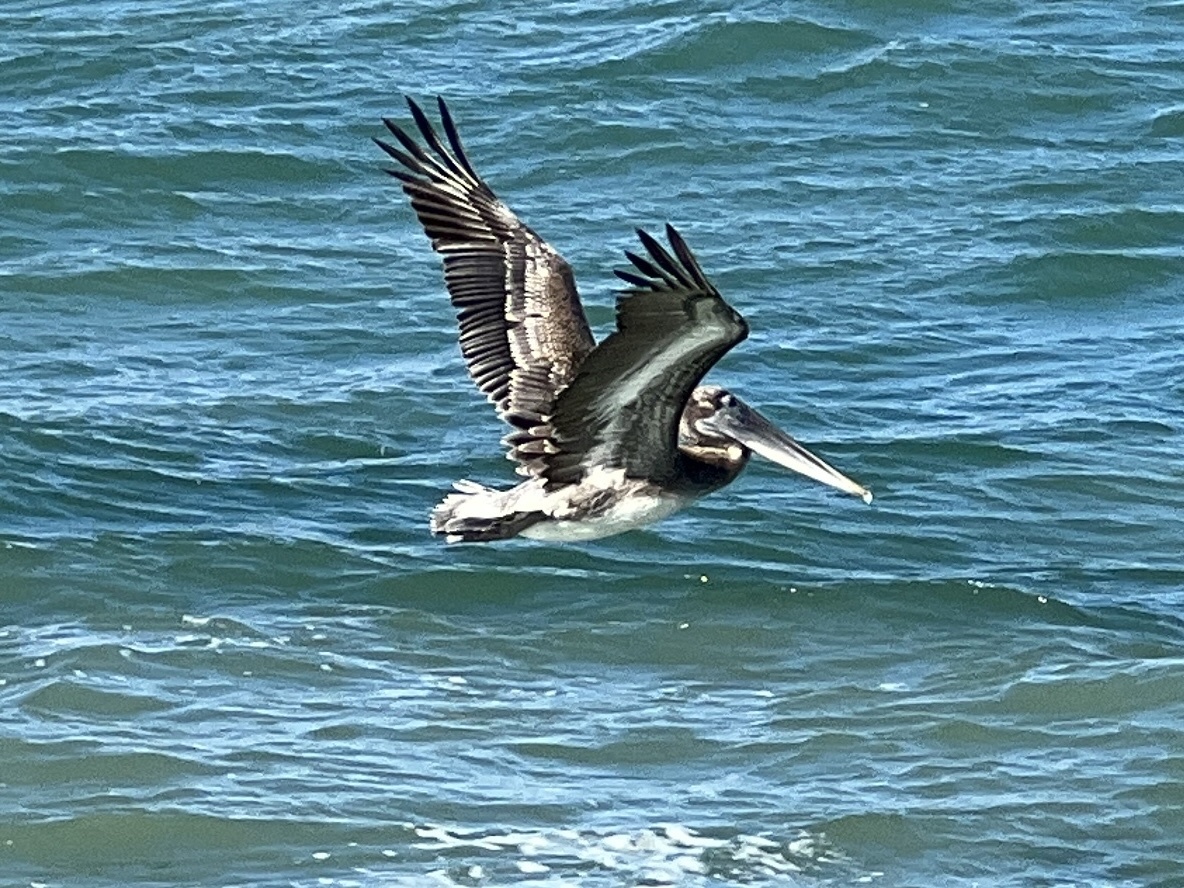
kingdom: Animalia
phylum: Chordata
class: Aves
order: Pelecaniformes
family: Pelecanidae
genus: Pelecanus
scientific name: Pelecanus occidentalis
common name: Brown pelican
